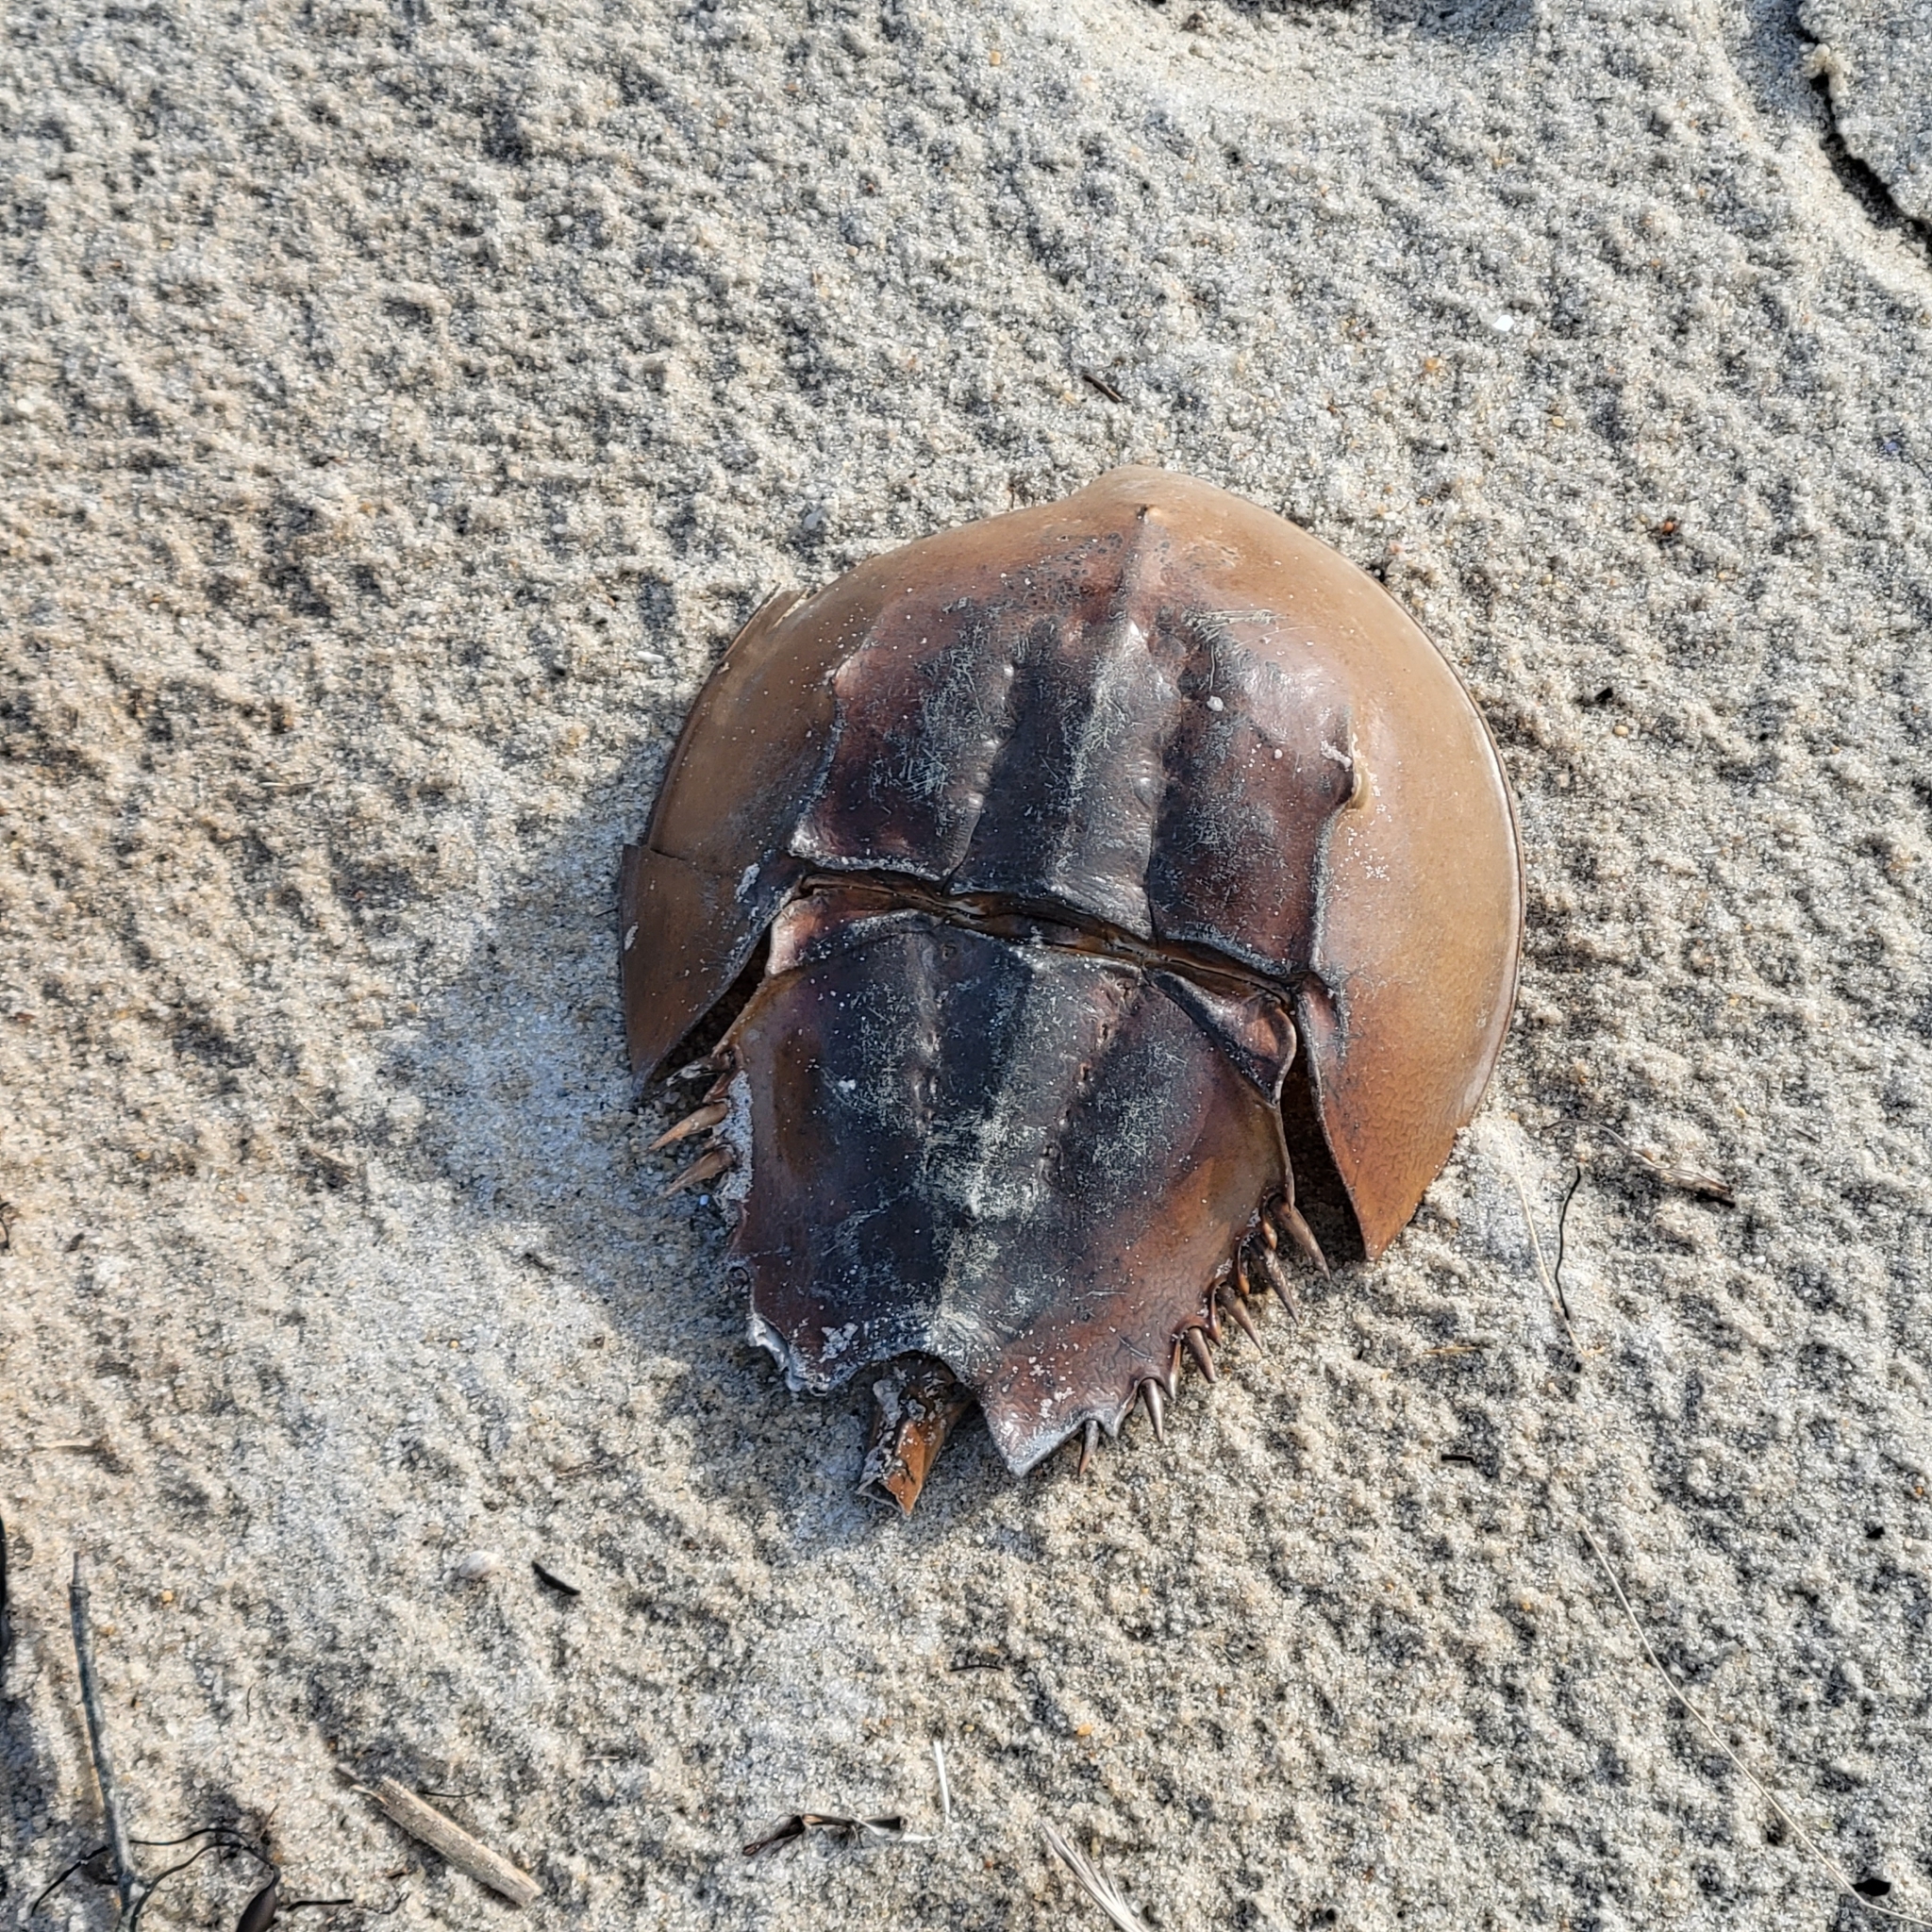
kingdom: Animalia
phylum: Arthropoda
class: Merostomata
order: Xiphosurida
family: Limulidae
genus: Limulus
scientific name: Limulus polyphemus
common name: Horseshoe crab
